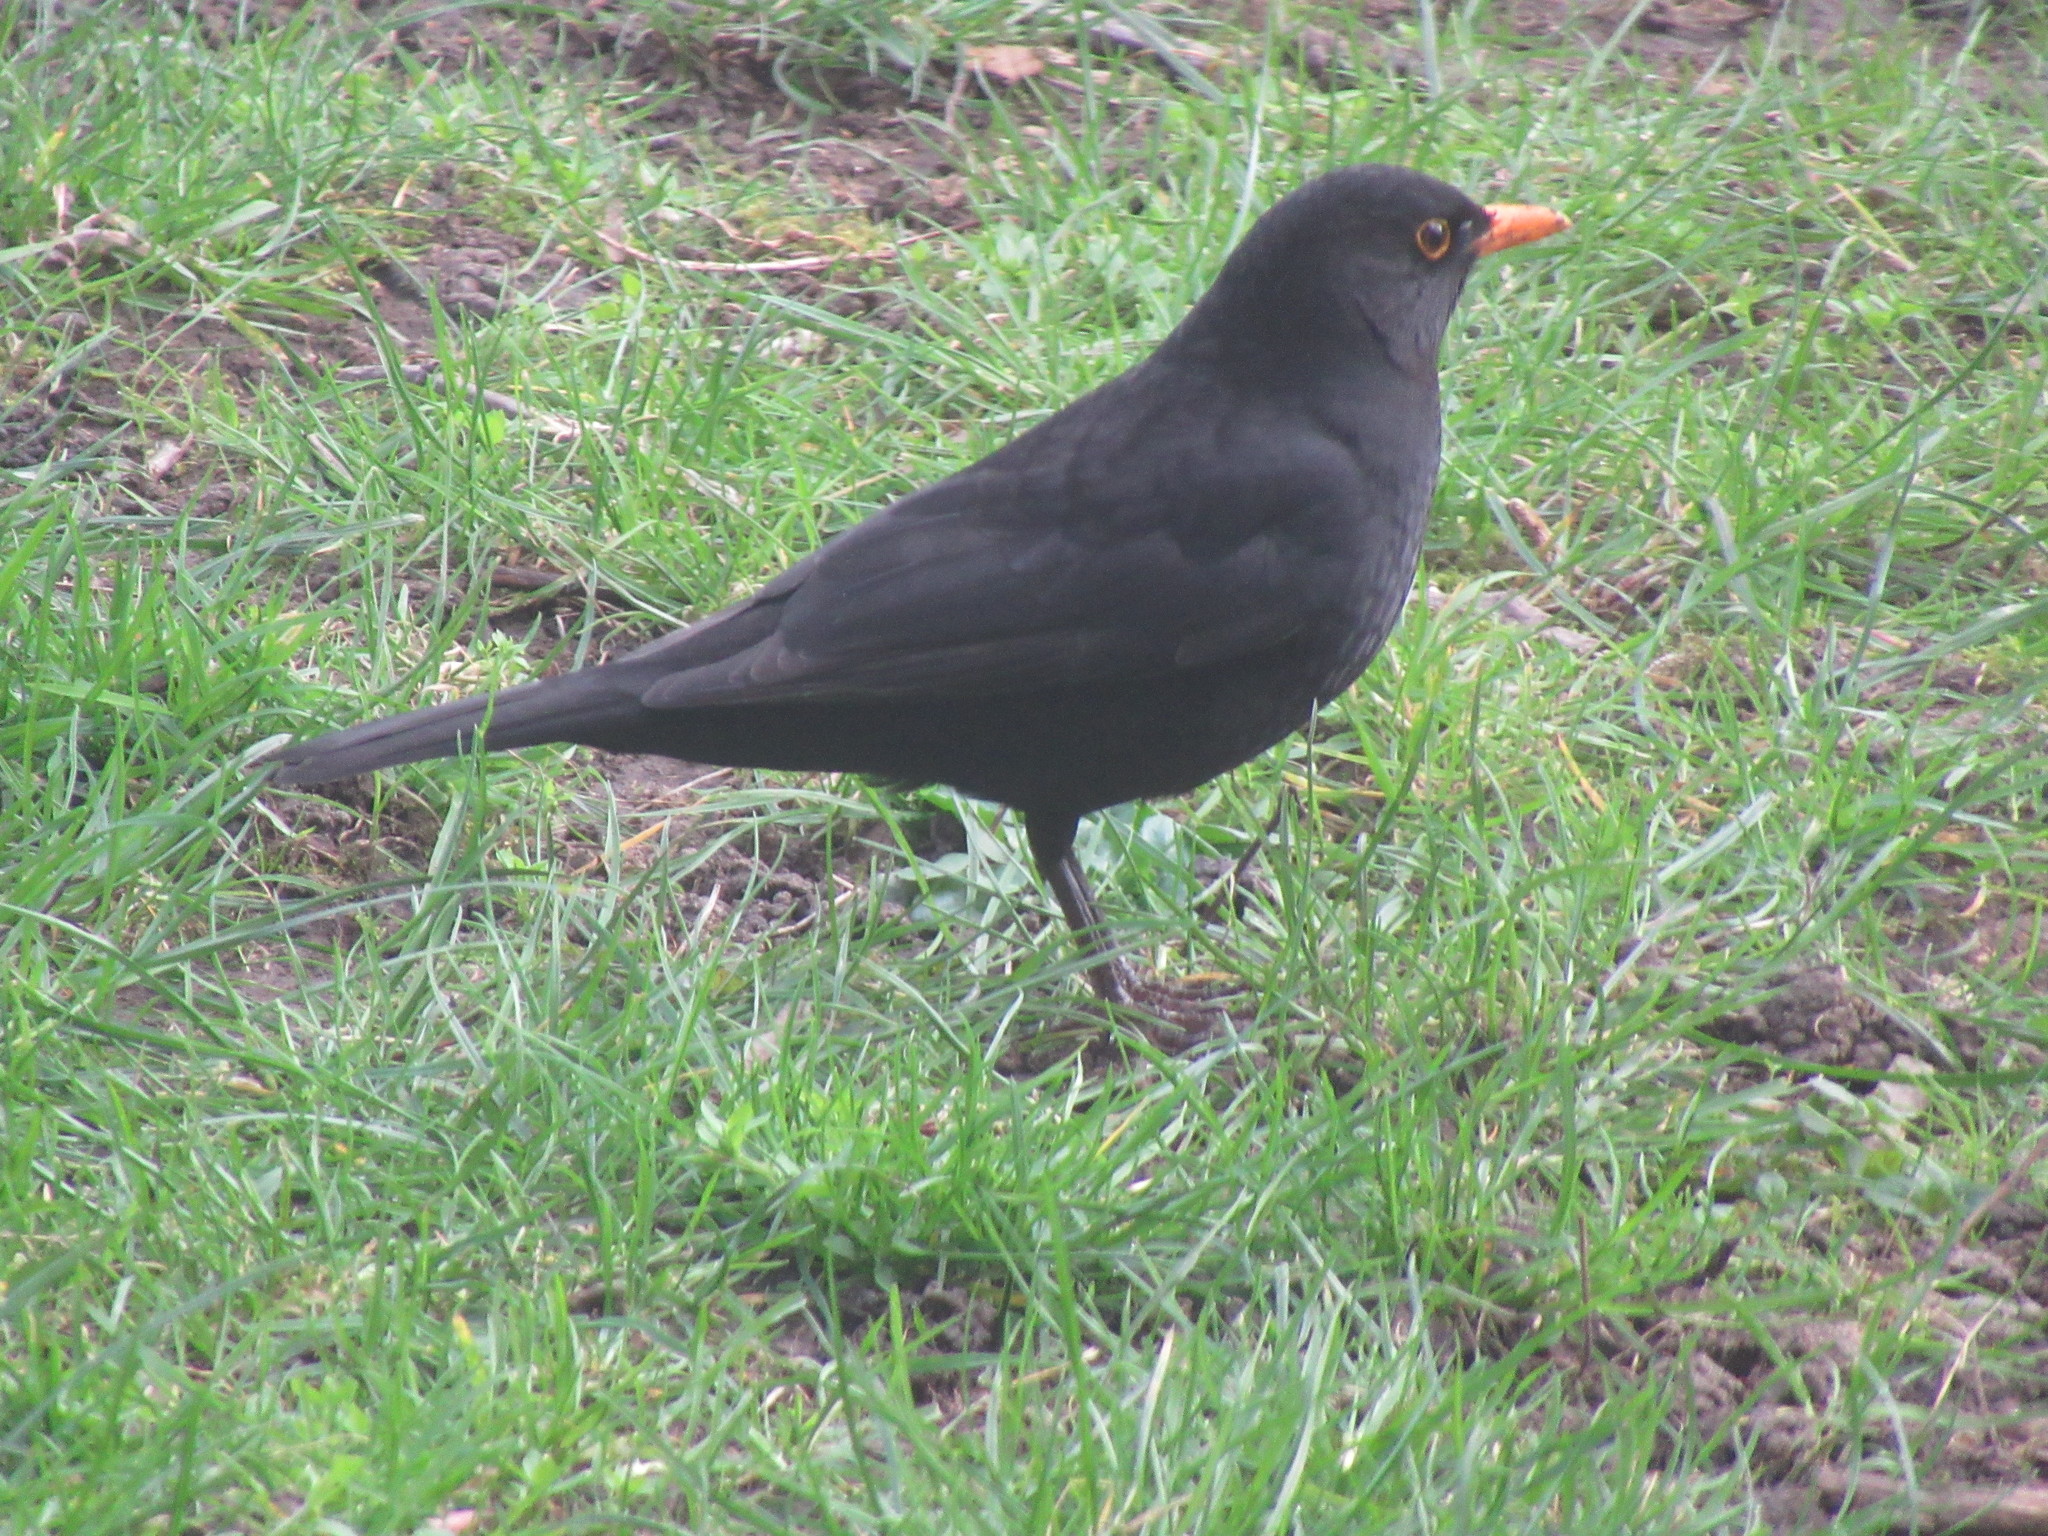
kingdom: Animalia
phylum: Chordata
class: Aves
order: Passeriformes
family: Turdidae
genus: Turdus
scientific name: Turdus merula
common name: Common blackbird
